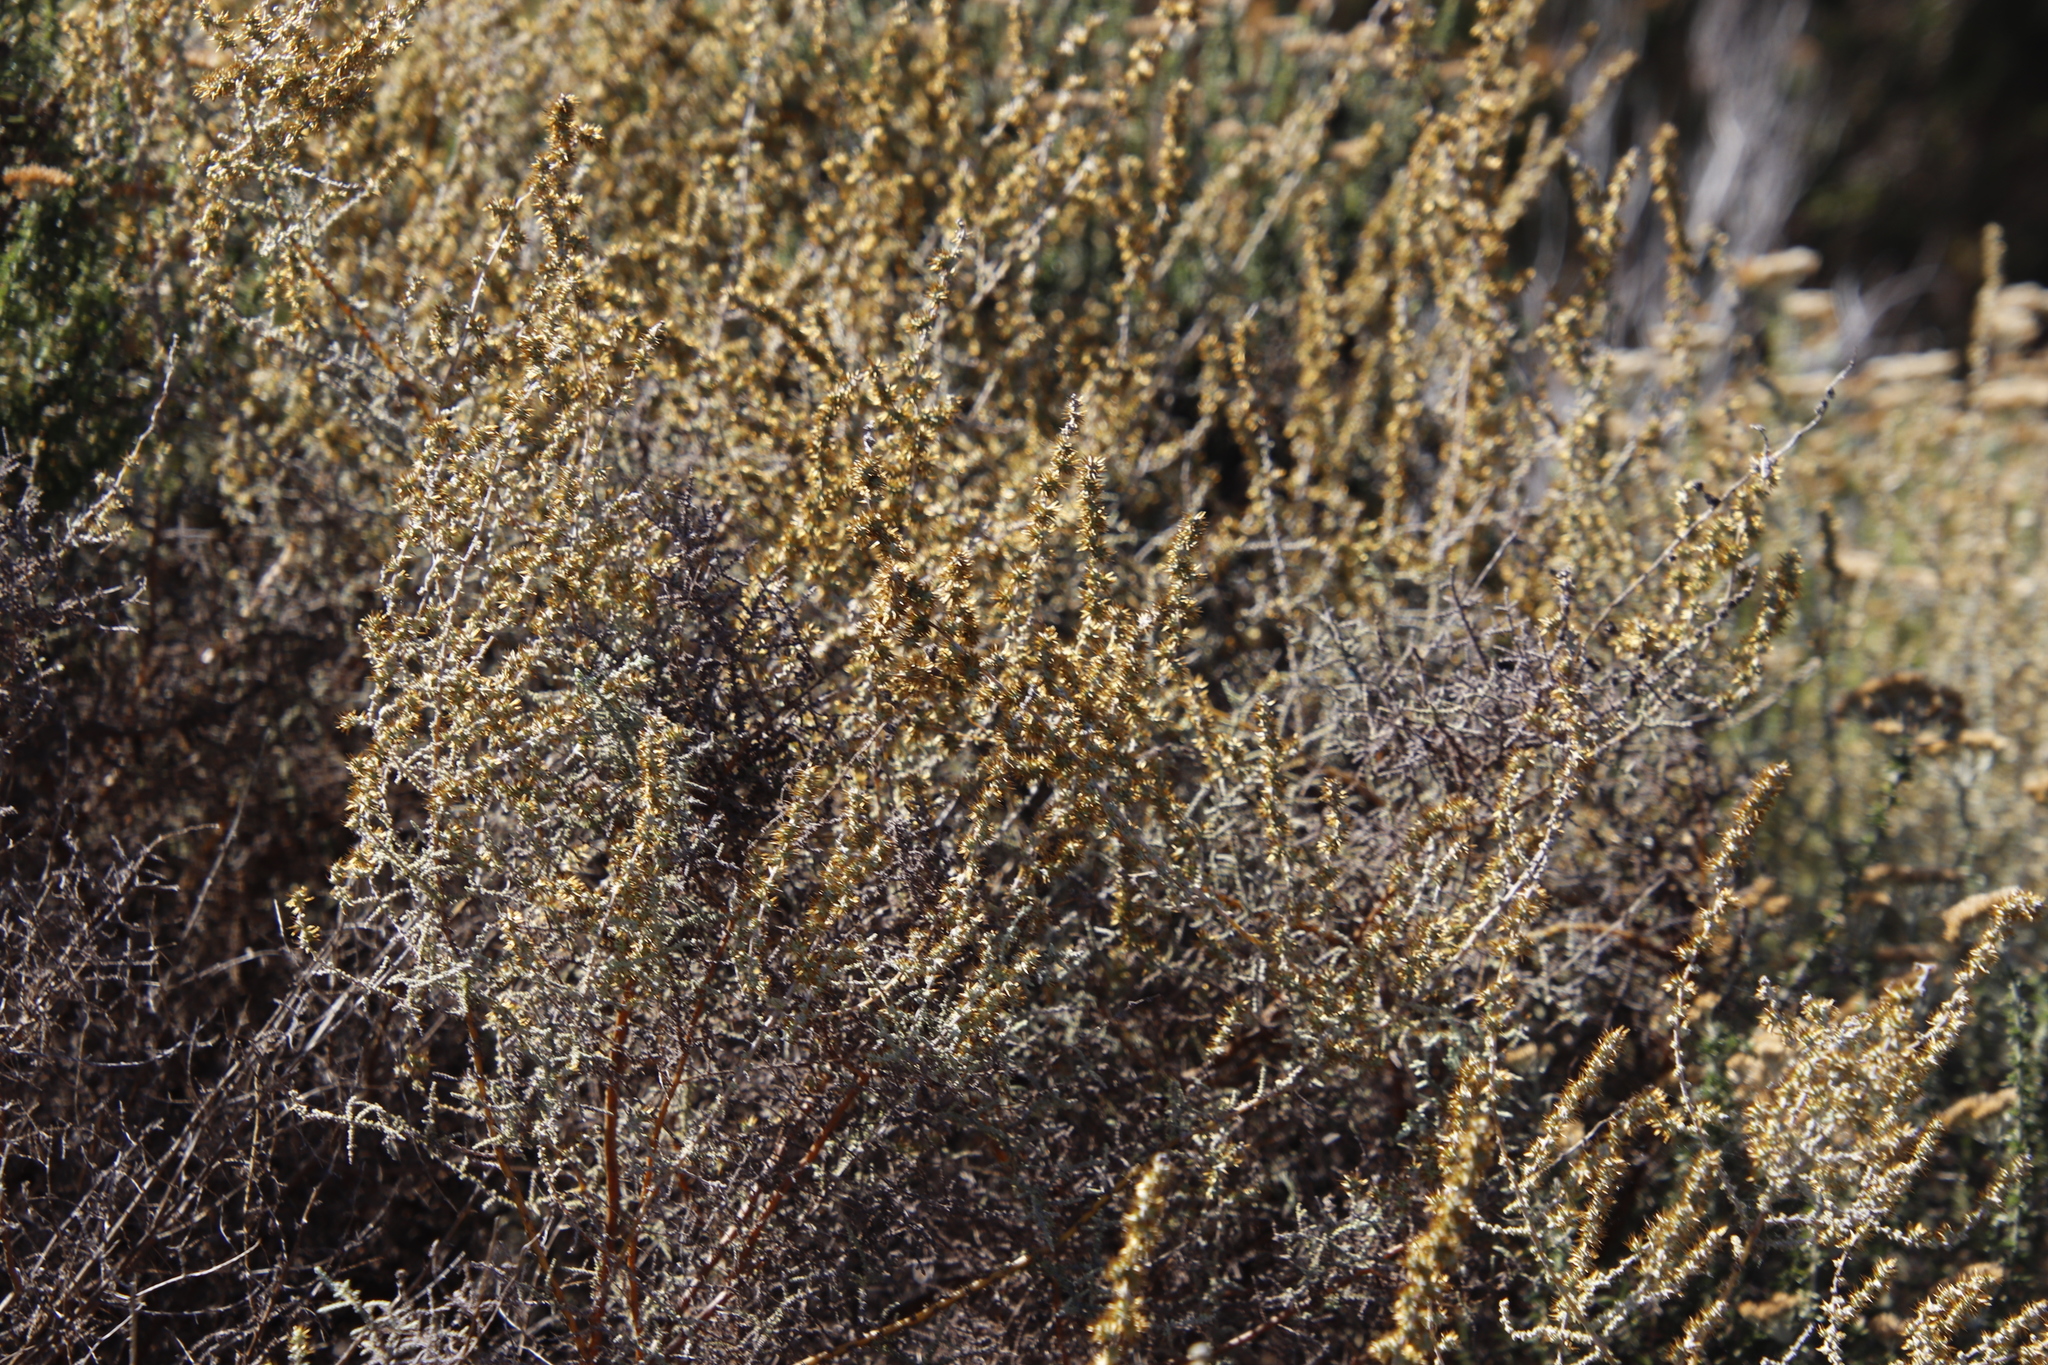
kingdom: Plantae
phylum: Tracheophyta
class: Magnoliopsida
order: Asterales
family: Asteraceae
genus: Seriphium
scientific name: Seriphium plumosum
